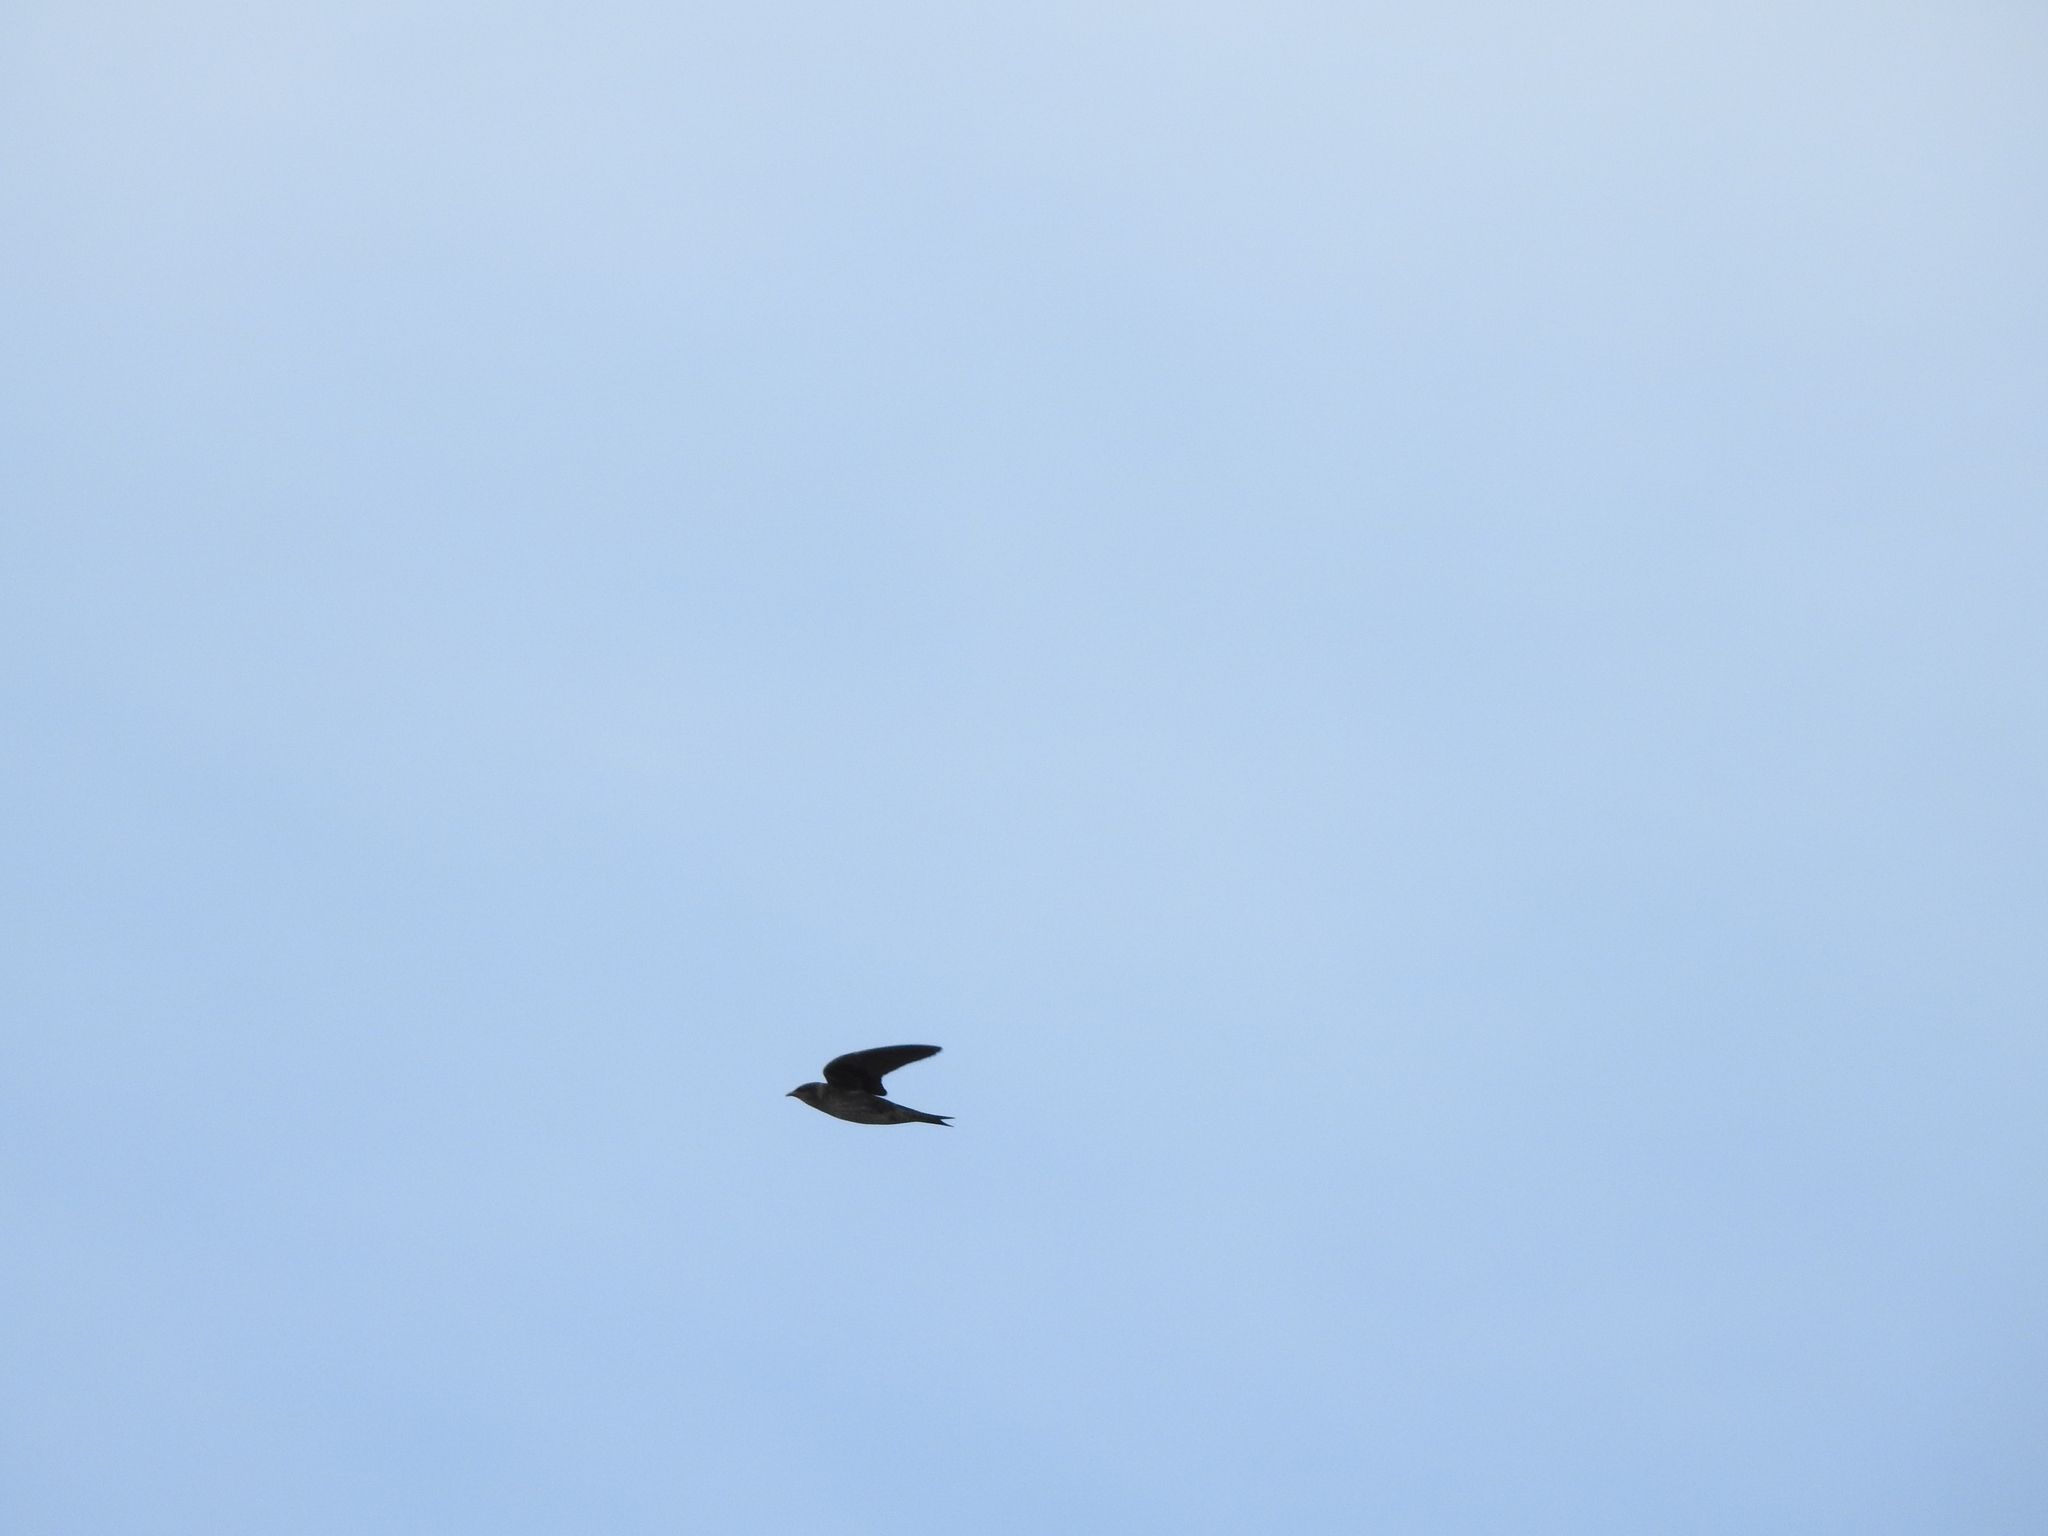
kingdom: Animalia
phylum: Chordata
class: Aves
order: Passeriformes
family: Hirundinidae
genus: Progne
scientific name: Progne subis
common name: Purple martin
